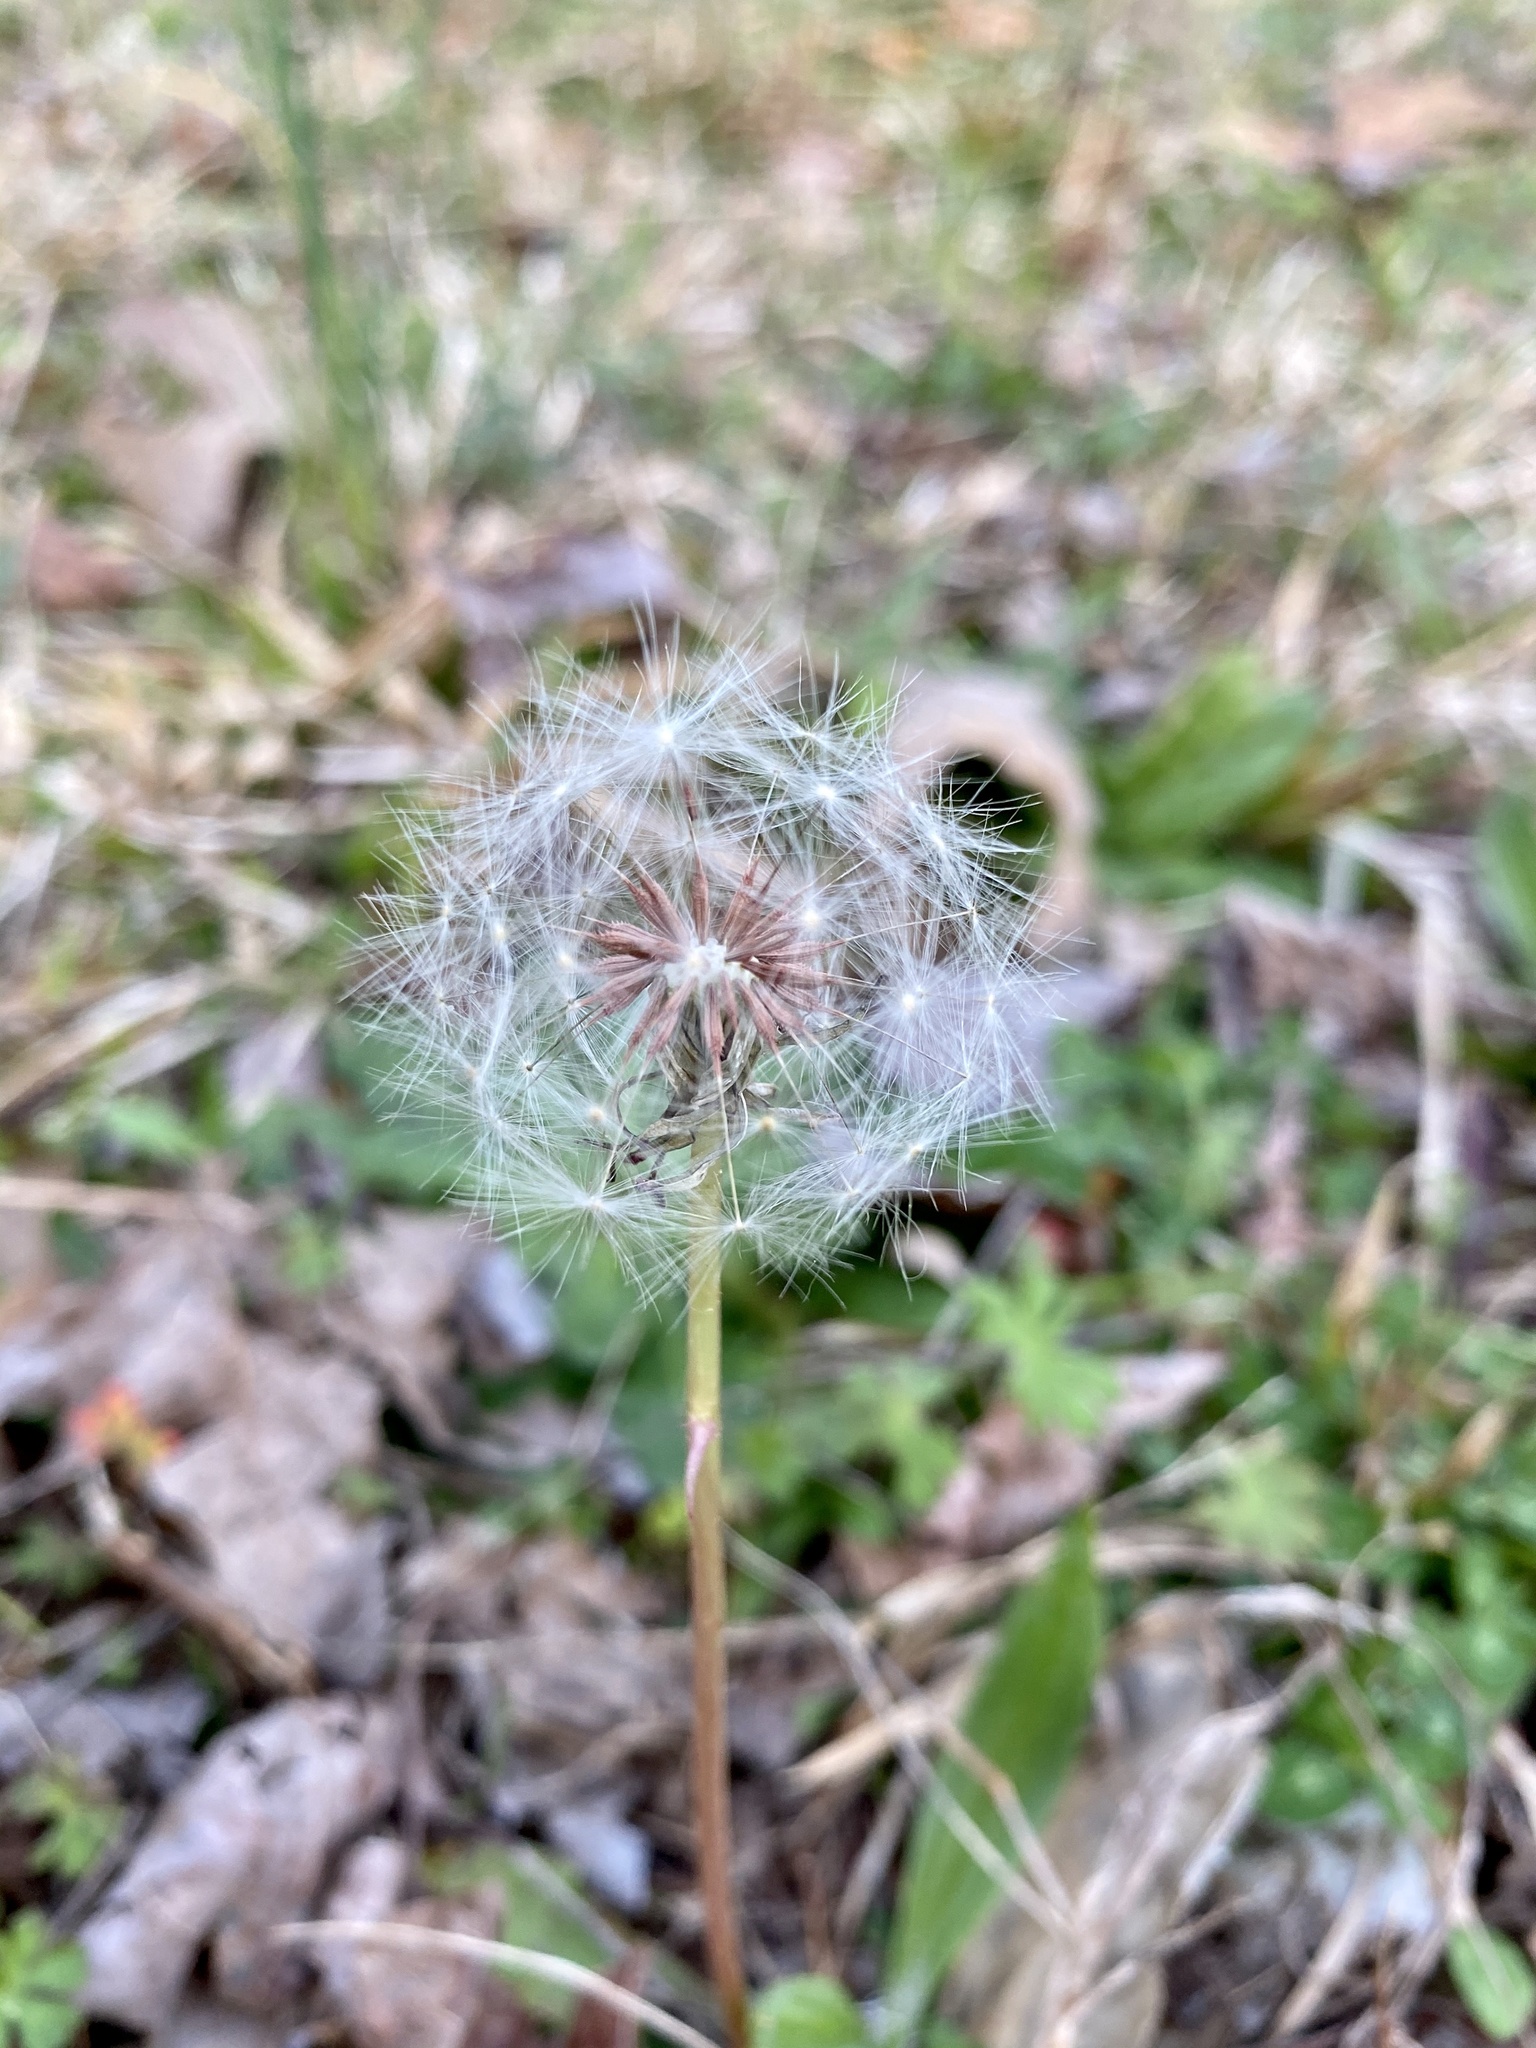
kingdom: Plantae
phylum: Tracheophyta
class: Magnoliopsida
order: Asterales
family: Asteraceae
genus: Taraxacum
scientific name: Taraxacum officinale
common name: Common dandelion
